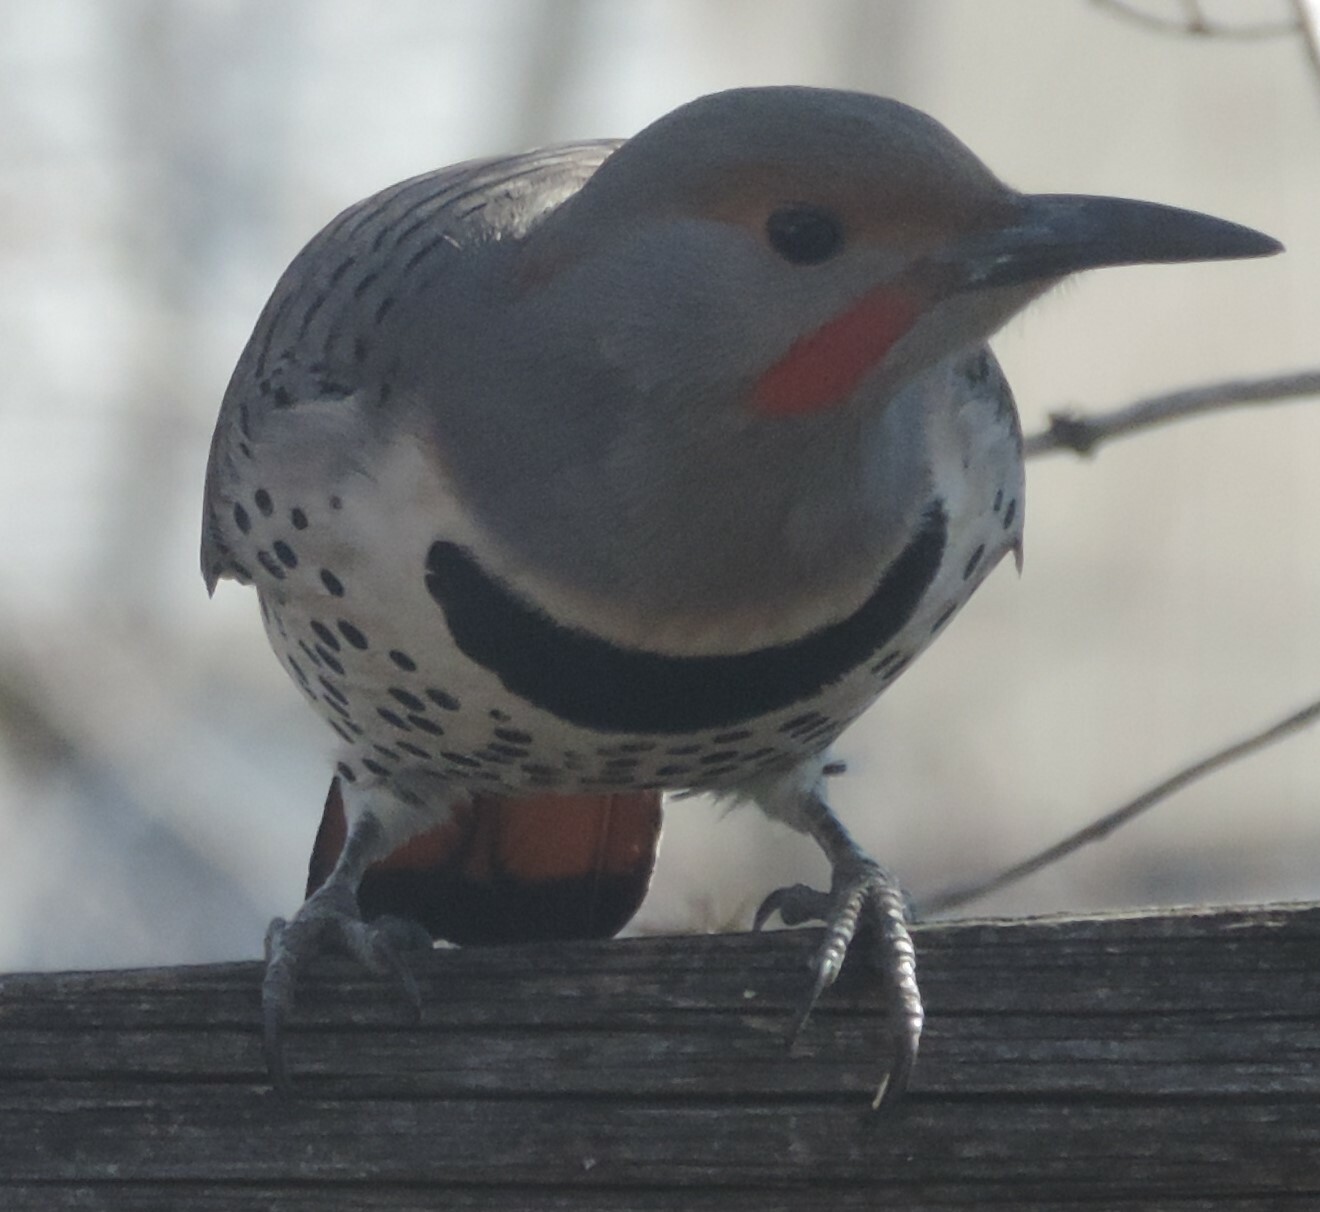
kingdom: Animalia
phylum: Chordata
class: Aves
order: Piciformes
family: Picidae
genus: Colaptes
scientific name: Colaptes
